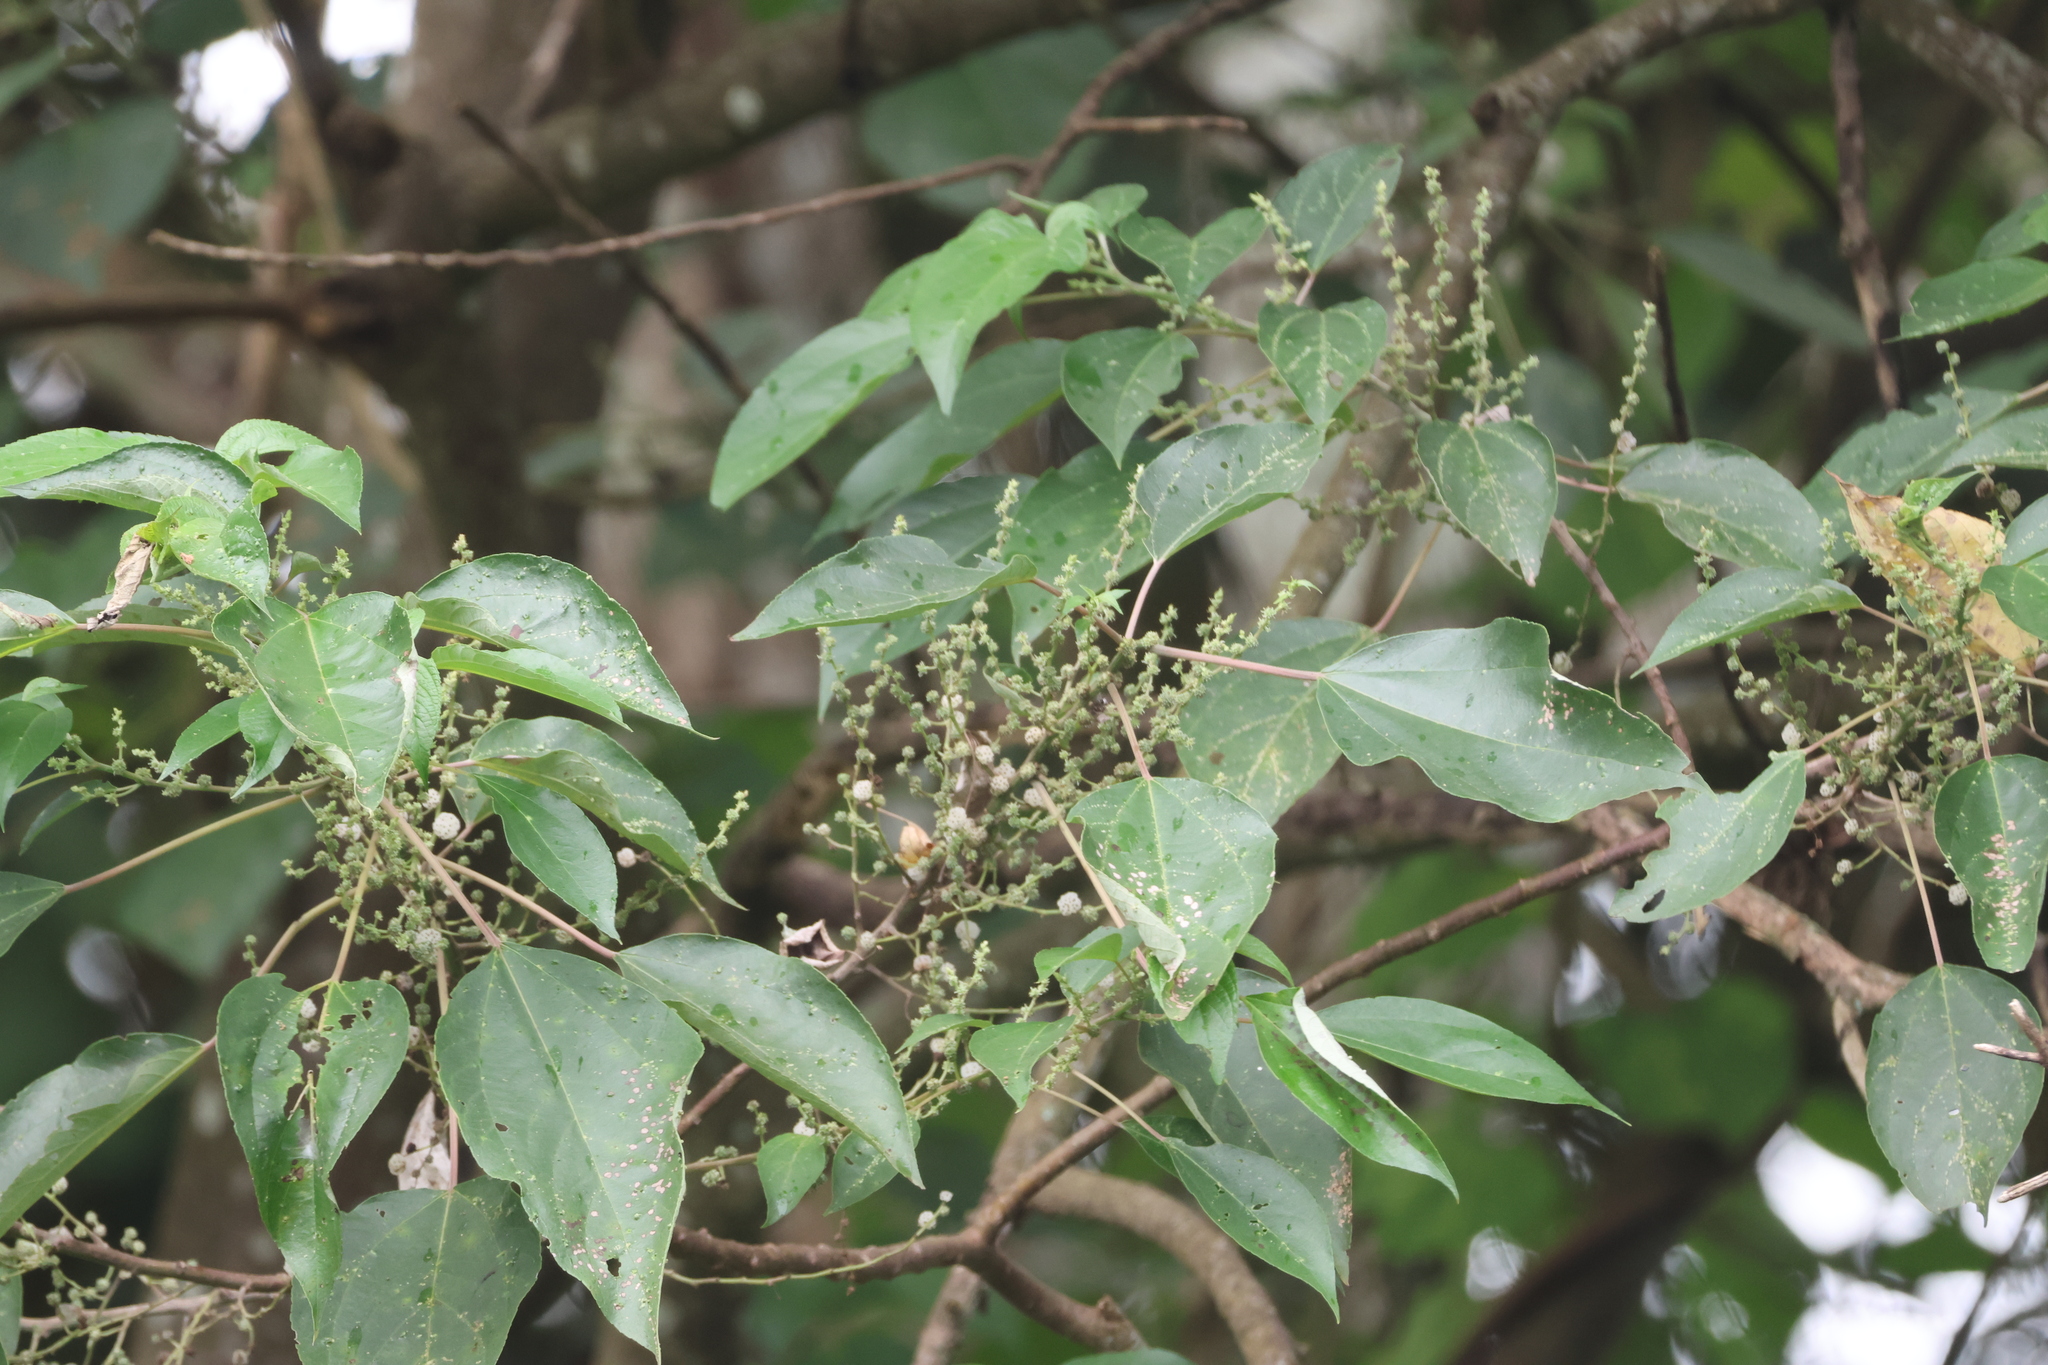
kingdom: Plantae
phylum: Tracheophyta
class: Magnoliopsida
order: Rosales
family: Urticaceae
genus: Pipturus
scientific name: Pipturus argenteus
